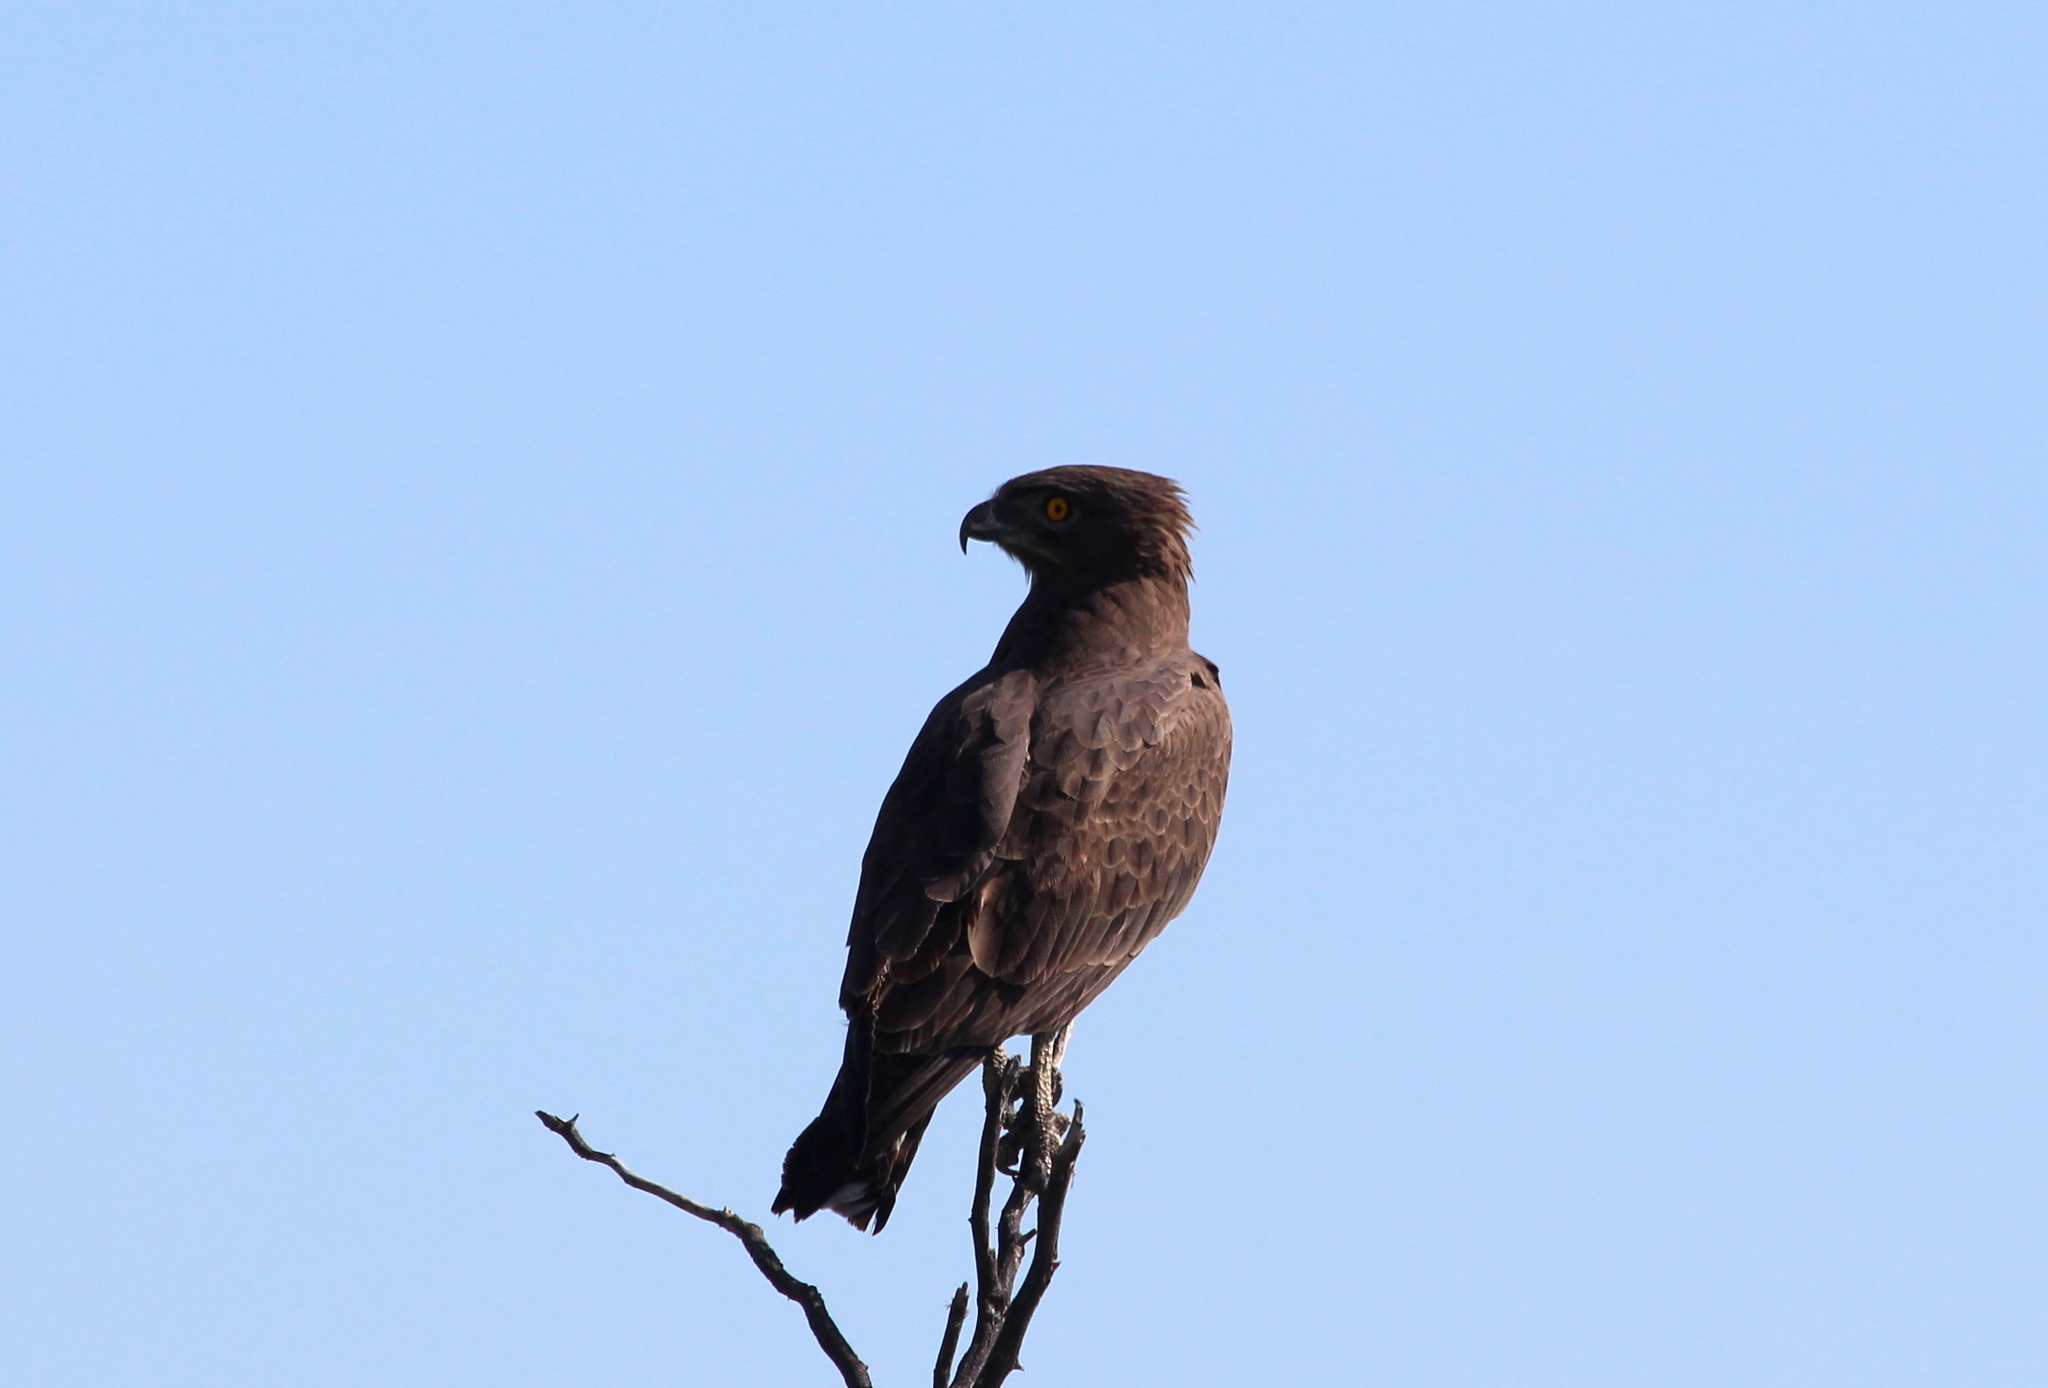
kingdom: Animalia
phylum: Chordata
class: Aves
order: Accipitriformes
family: Accipitridae
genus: Circaetus
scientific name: Circaetus cinereus
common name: Brown snake eagle
